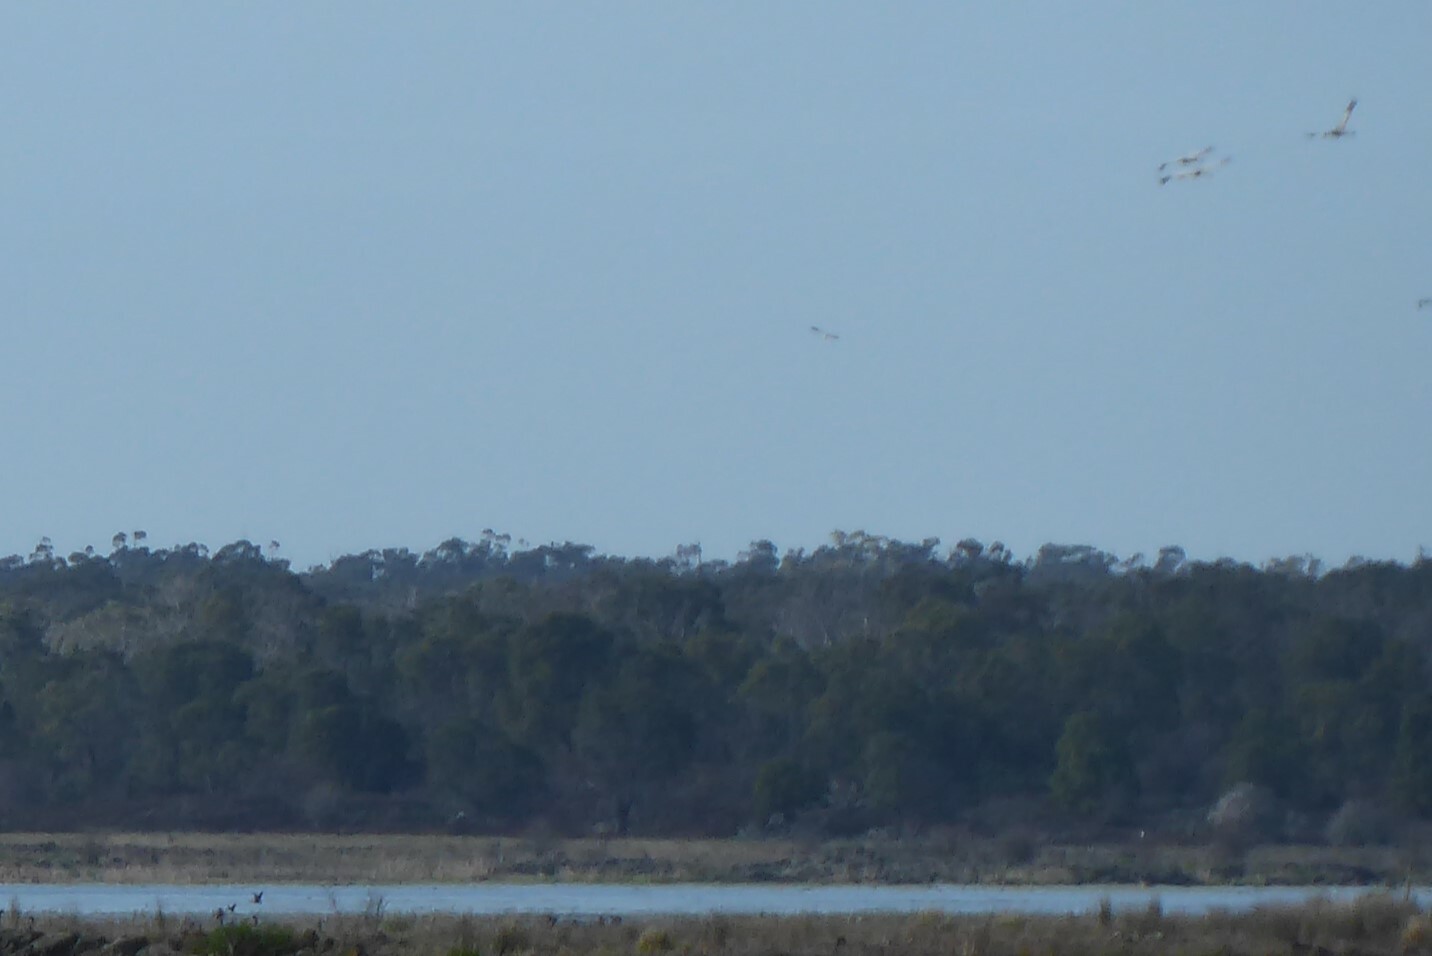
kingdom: Animalia
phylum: Chordata
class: Aves
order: Gruiformes
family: Gruidae
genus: Grus
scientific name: Grus rubicunda
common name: Brolga
